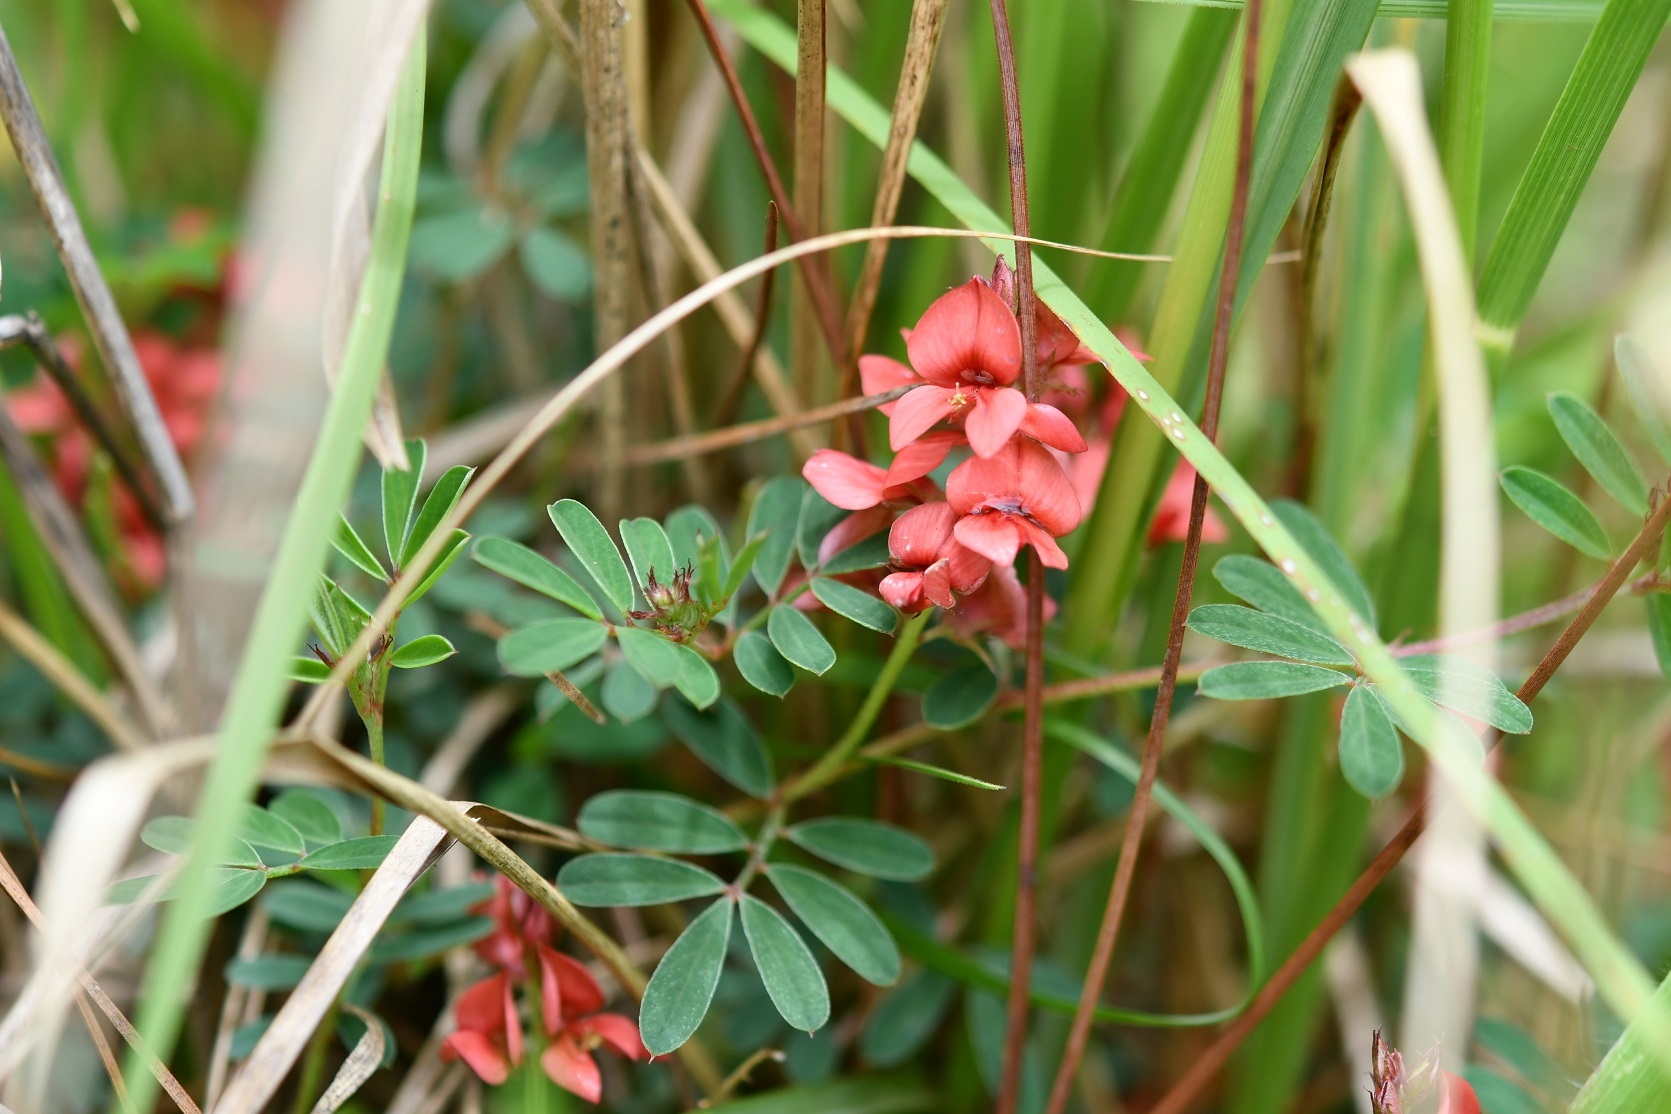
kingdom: Plantae
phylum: Tracheophyta
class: Magnoliopsida
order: Fabales
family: Fabaceae
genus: Indigofera
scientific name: Indigofera miniata
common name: Coast indigo
